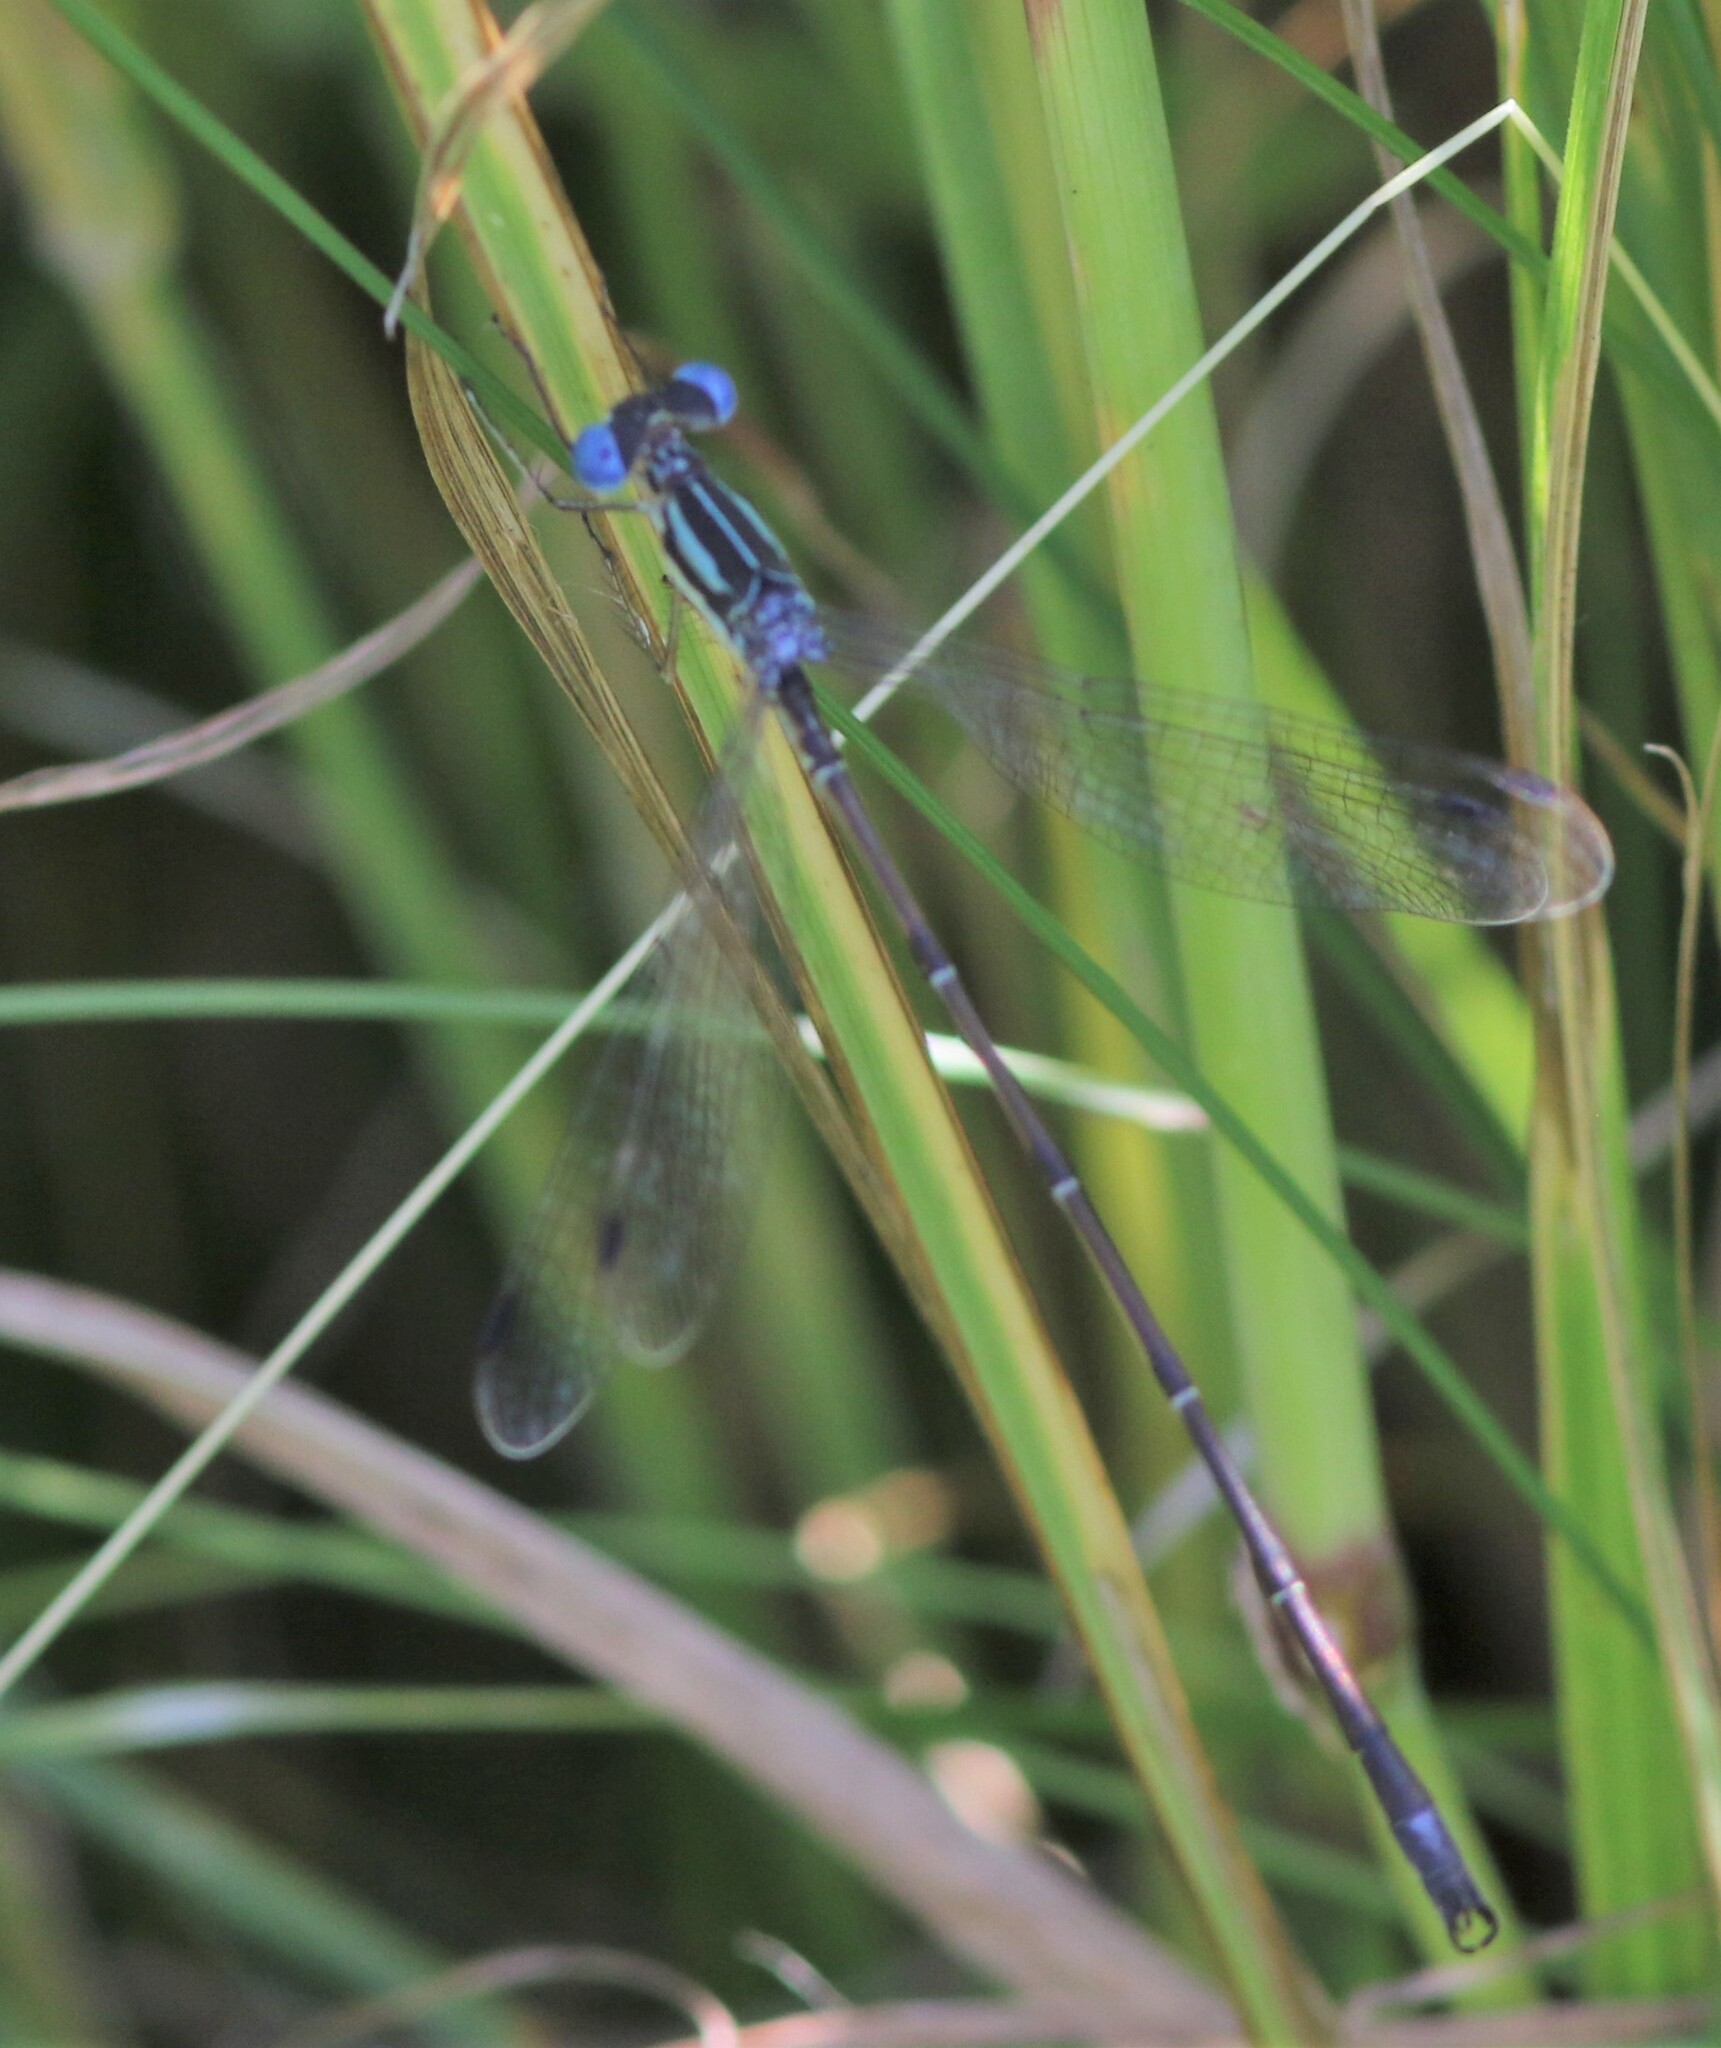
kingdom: Animalia
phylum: Arthropoda
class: Insecta
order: Odonata
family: Lestidae
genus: Lestes
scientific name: Lestes rectangularis
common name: Slender spreadwing
